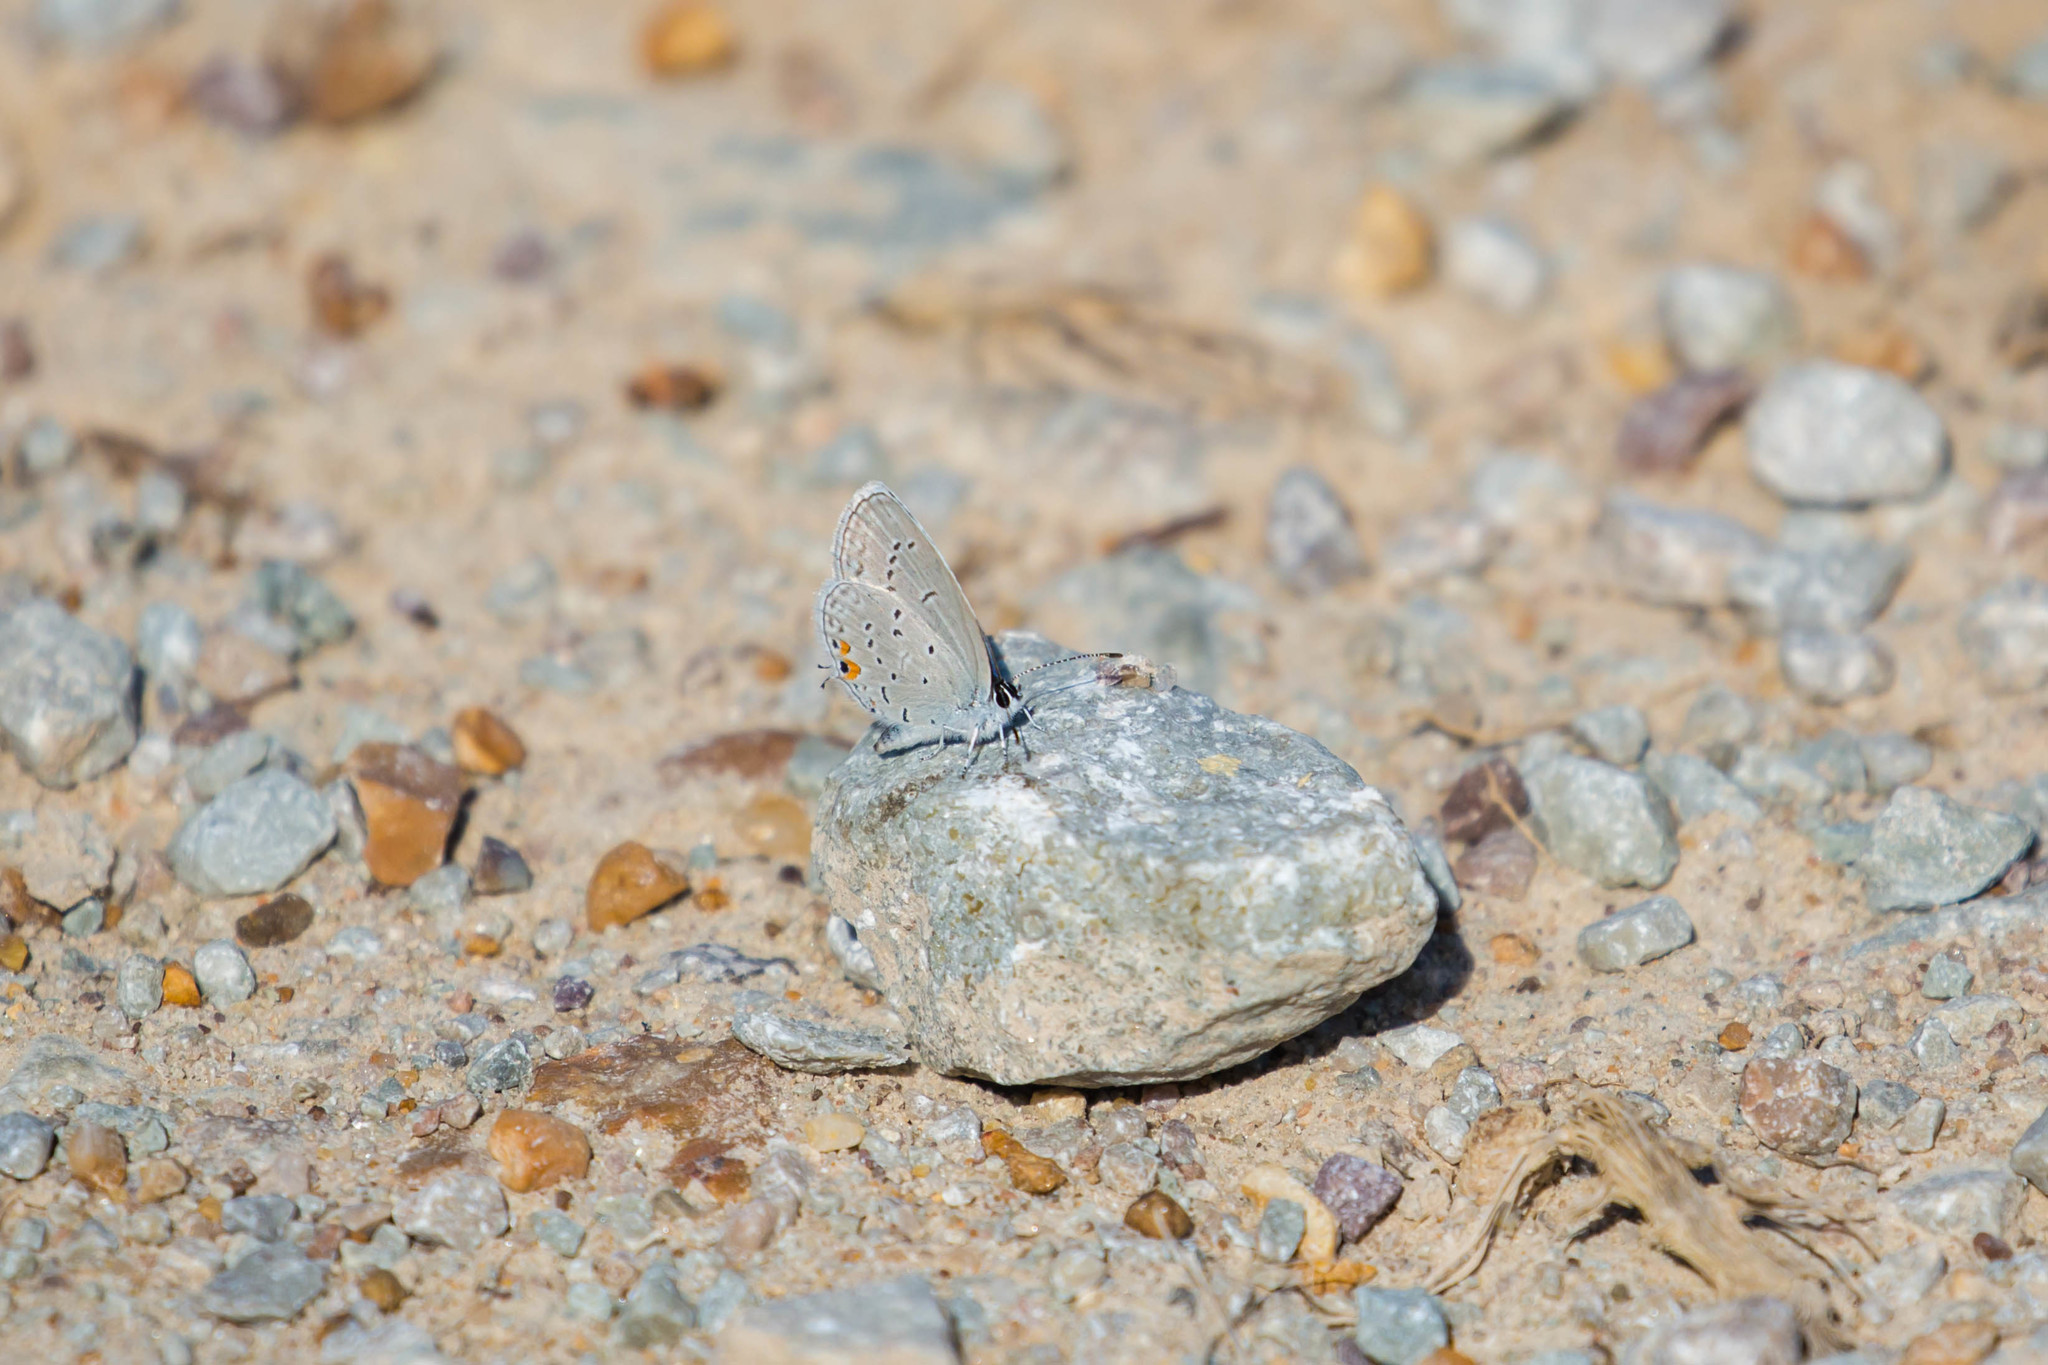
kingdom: Animalia
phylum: Arthropoda
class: Insecta
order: Lepidoptera
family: Lycaenidae
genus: Elkalyce
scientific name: Elkalyce comyntas
